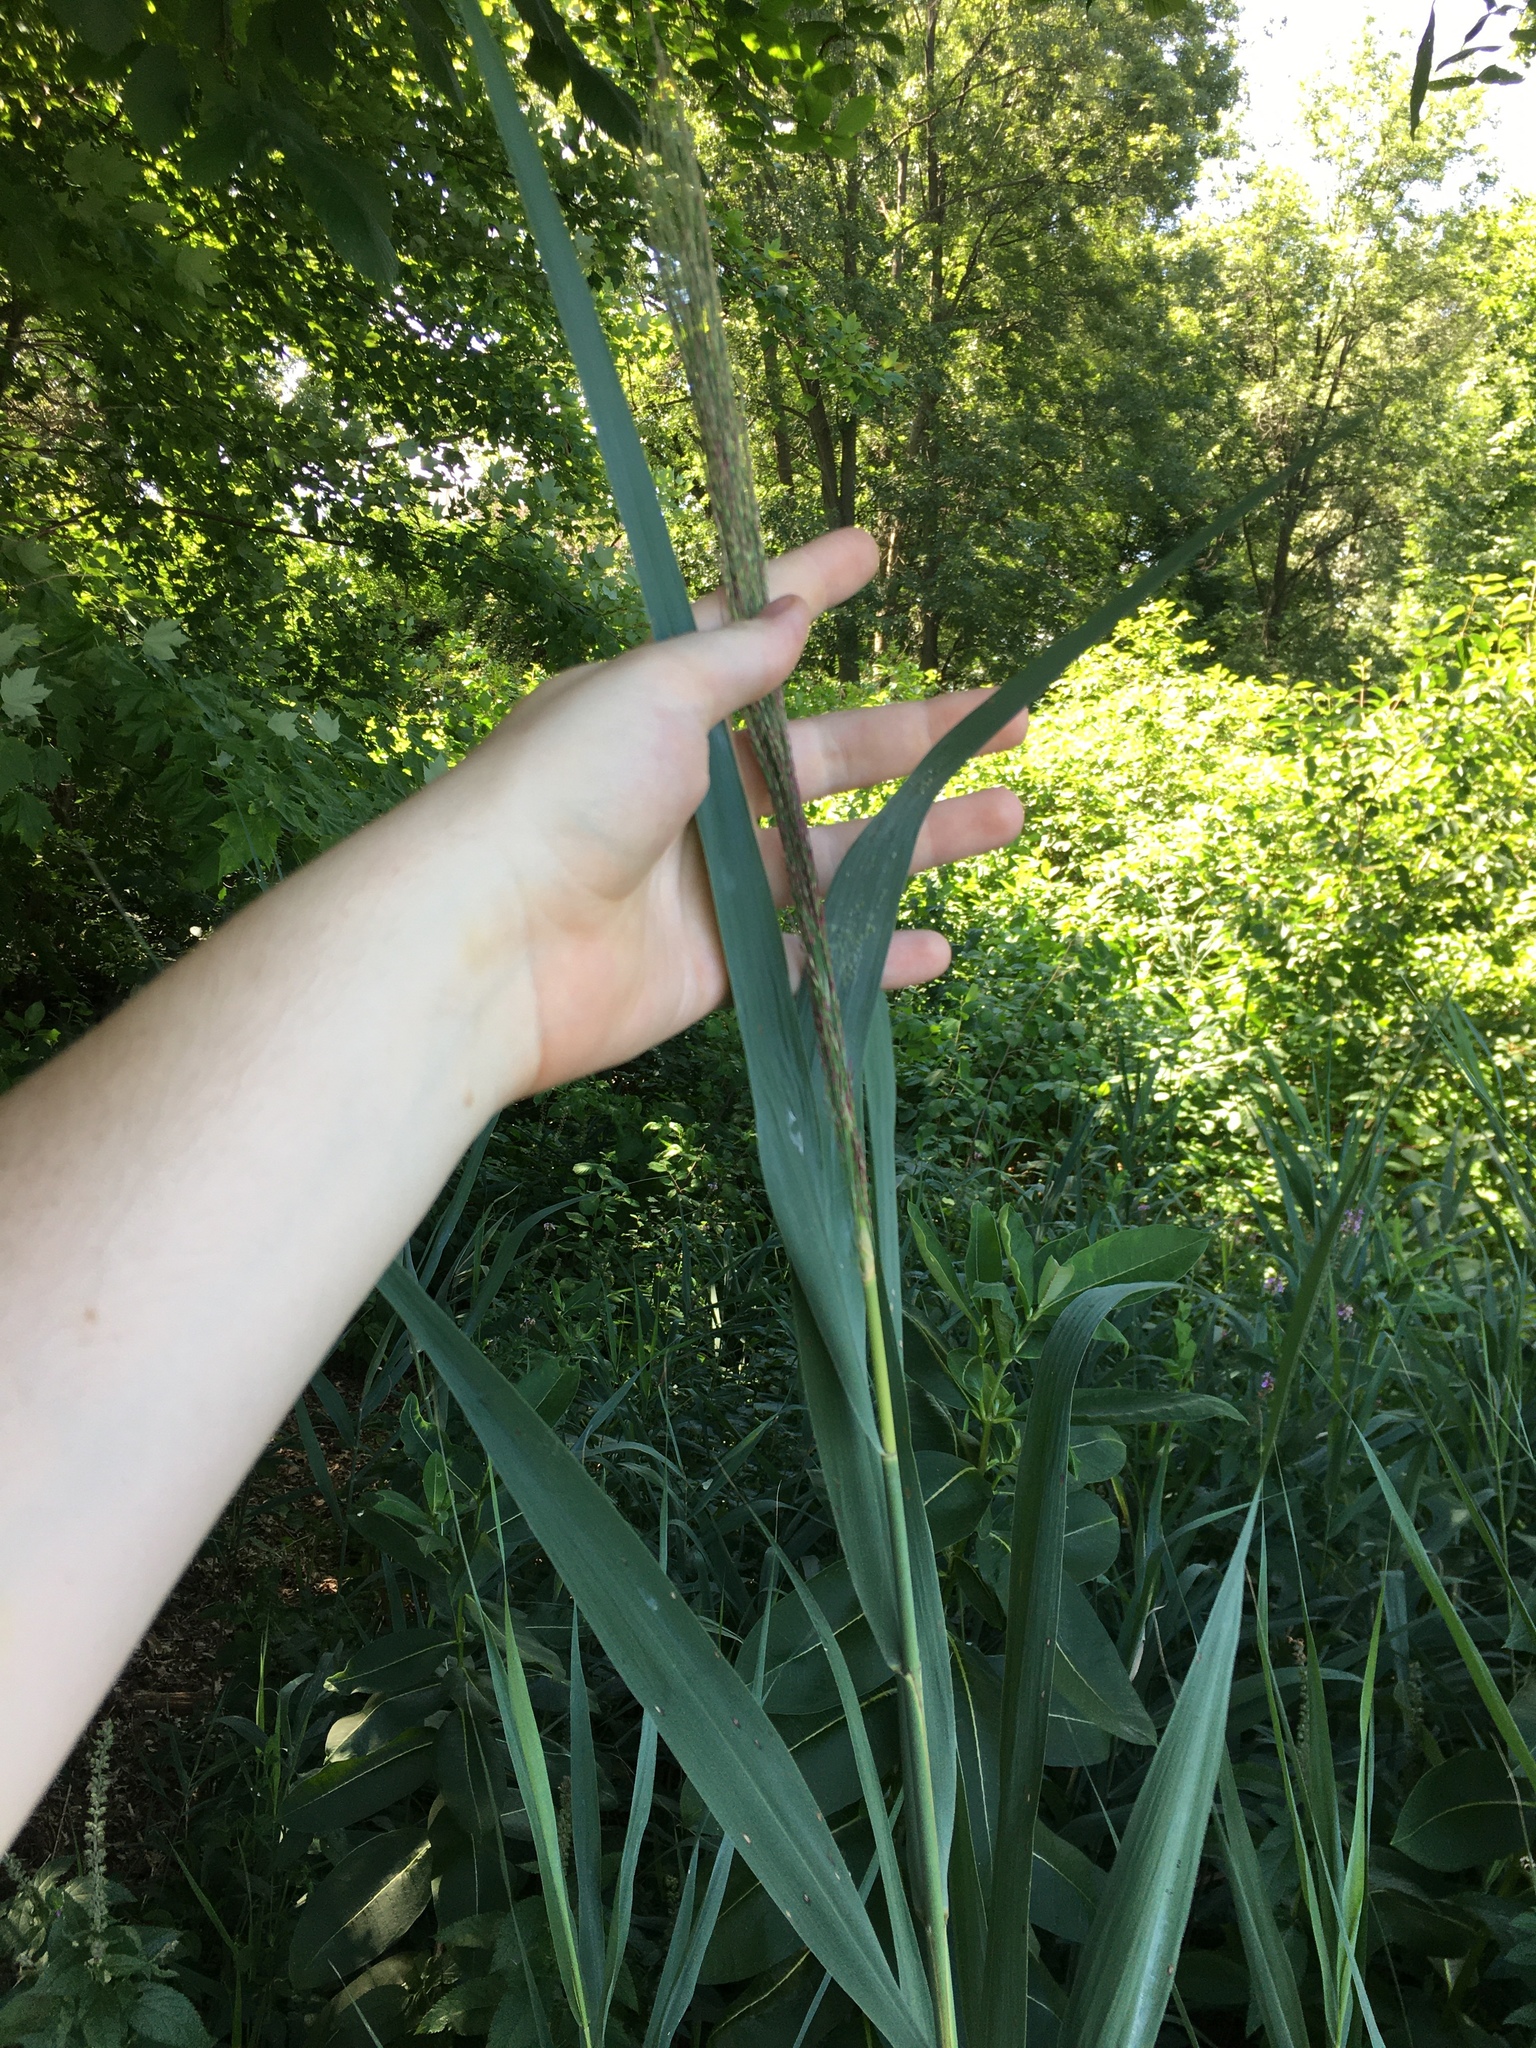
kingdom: Plantae
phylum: Tracheophyta
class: Liliopsida
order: Poales
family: Poaceae
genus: Phragmites
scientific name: Phragmites australis
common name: Common reed
